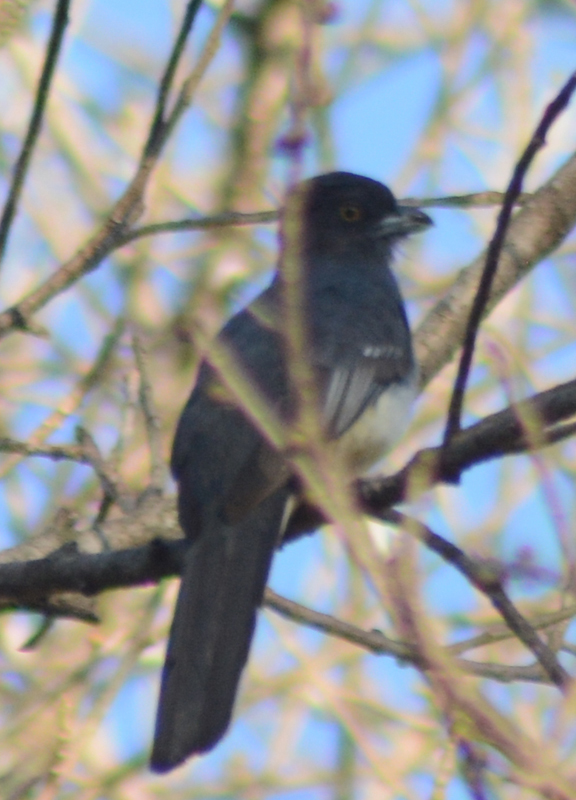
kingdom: Animalia
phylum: Chordata
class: Aves
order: Trogoniformes
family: Trogonidae
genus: Trogon
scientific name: Trogon citreolus
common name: Citreoline trogon
